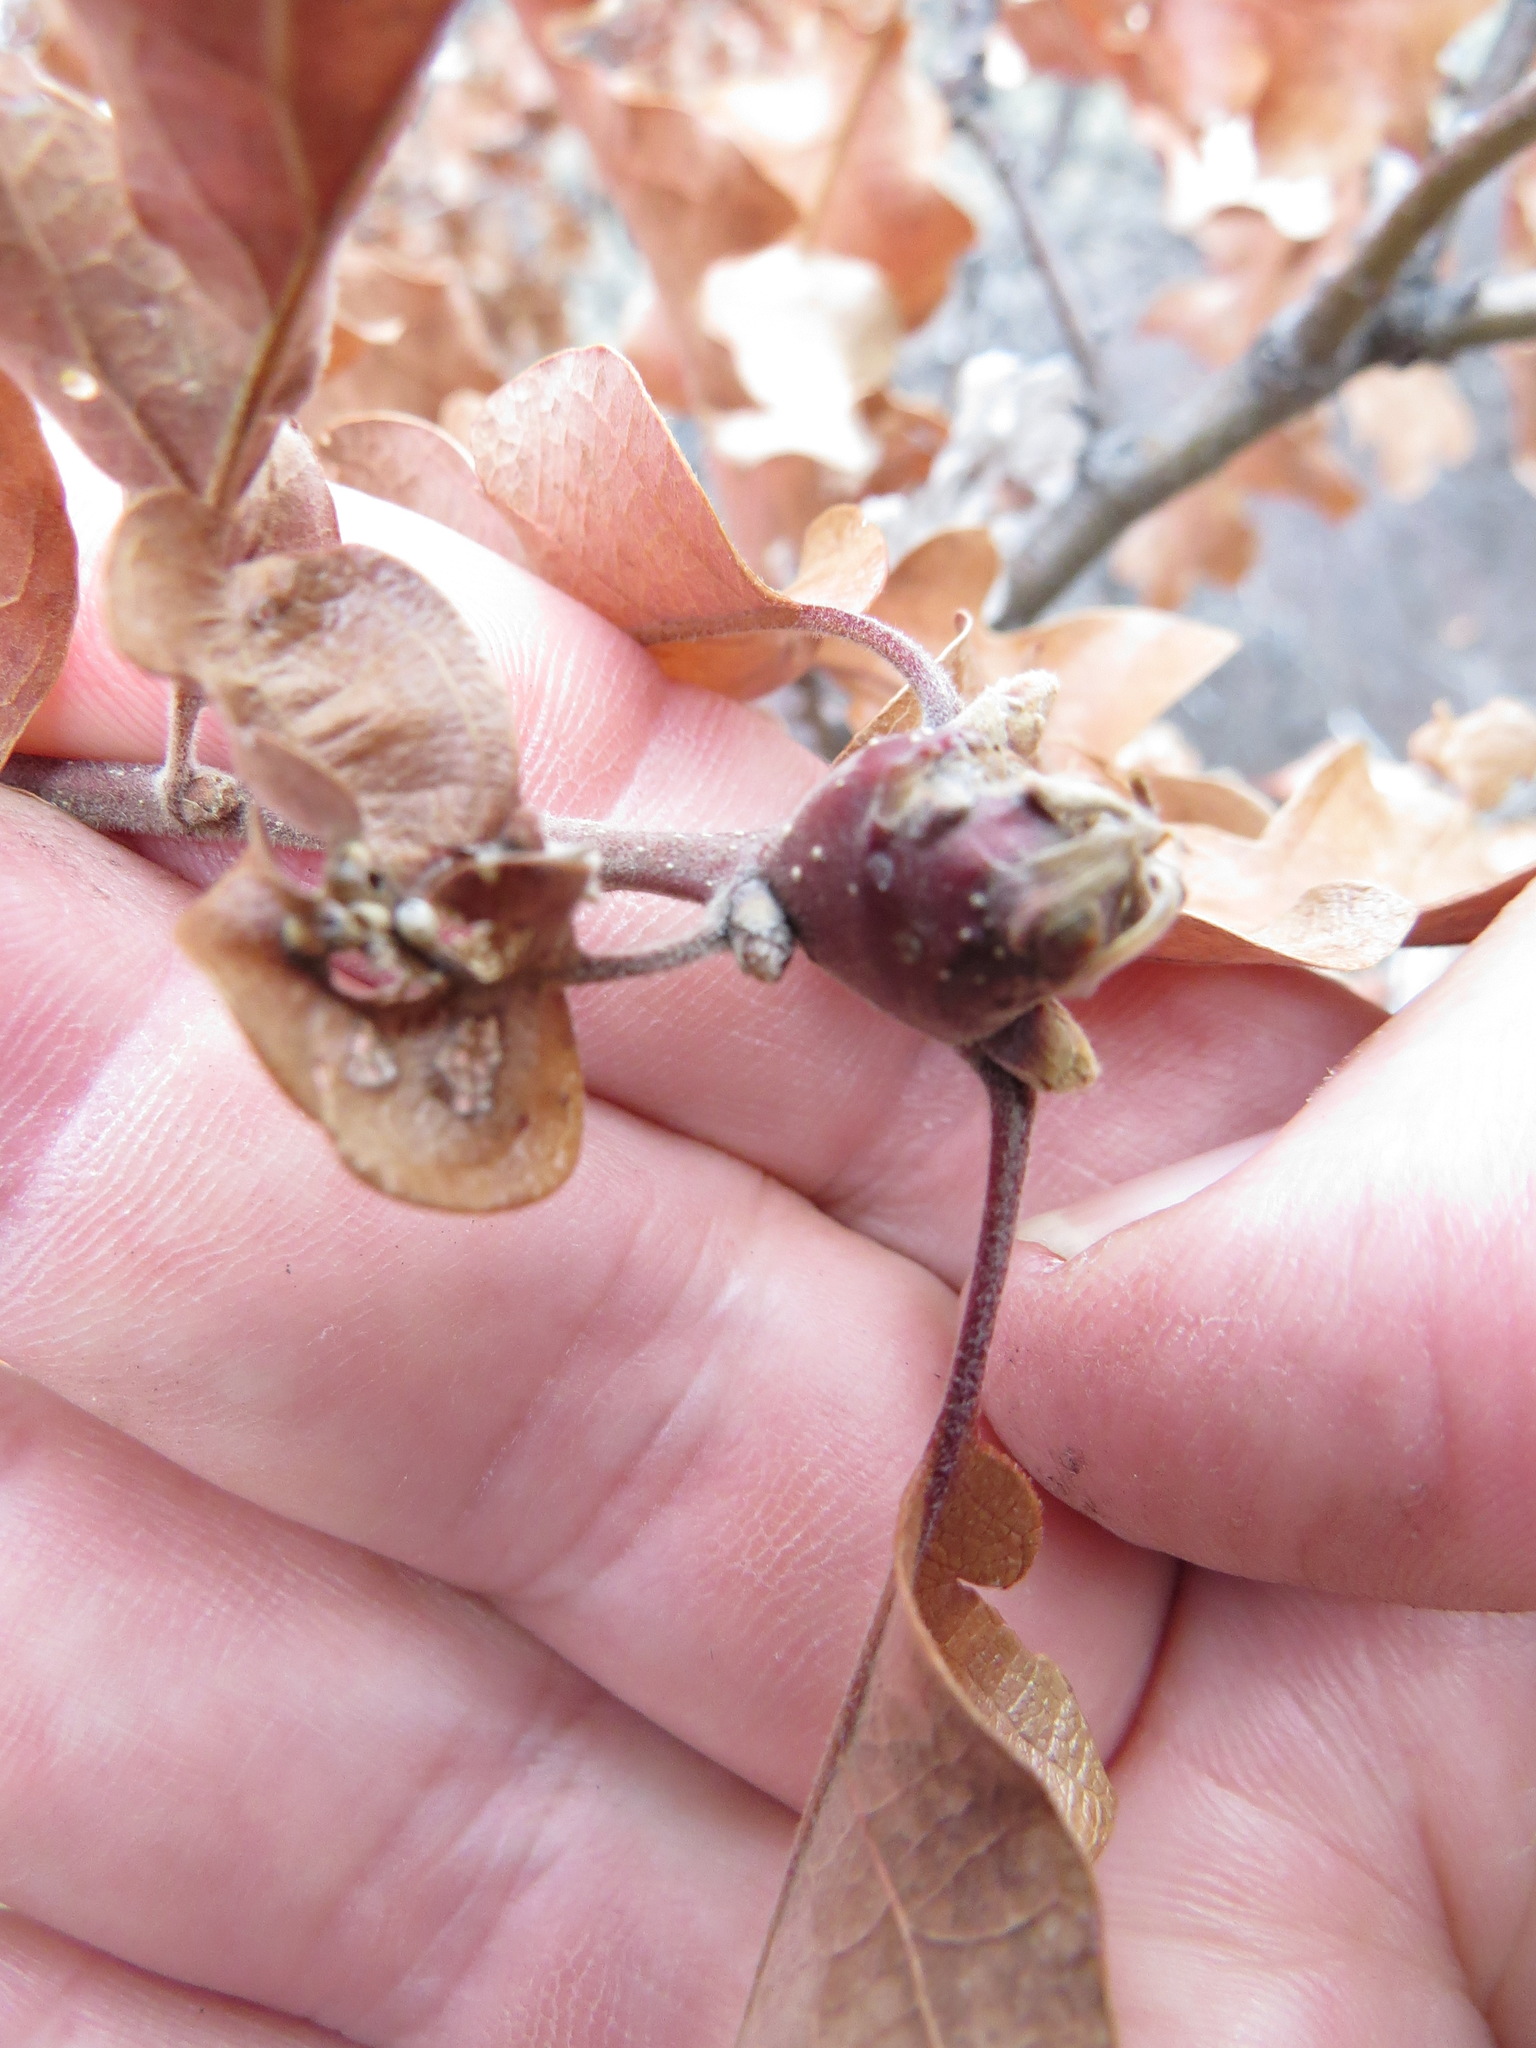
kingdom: Animalia
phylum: Arthropoda
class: Insecta
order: Hymenoptera
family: Cynipidae
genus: Andricus
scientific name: Andricus
